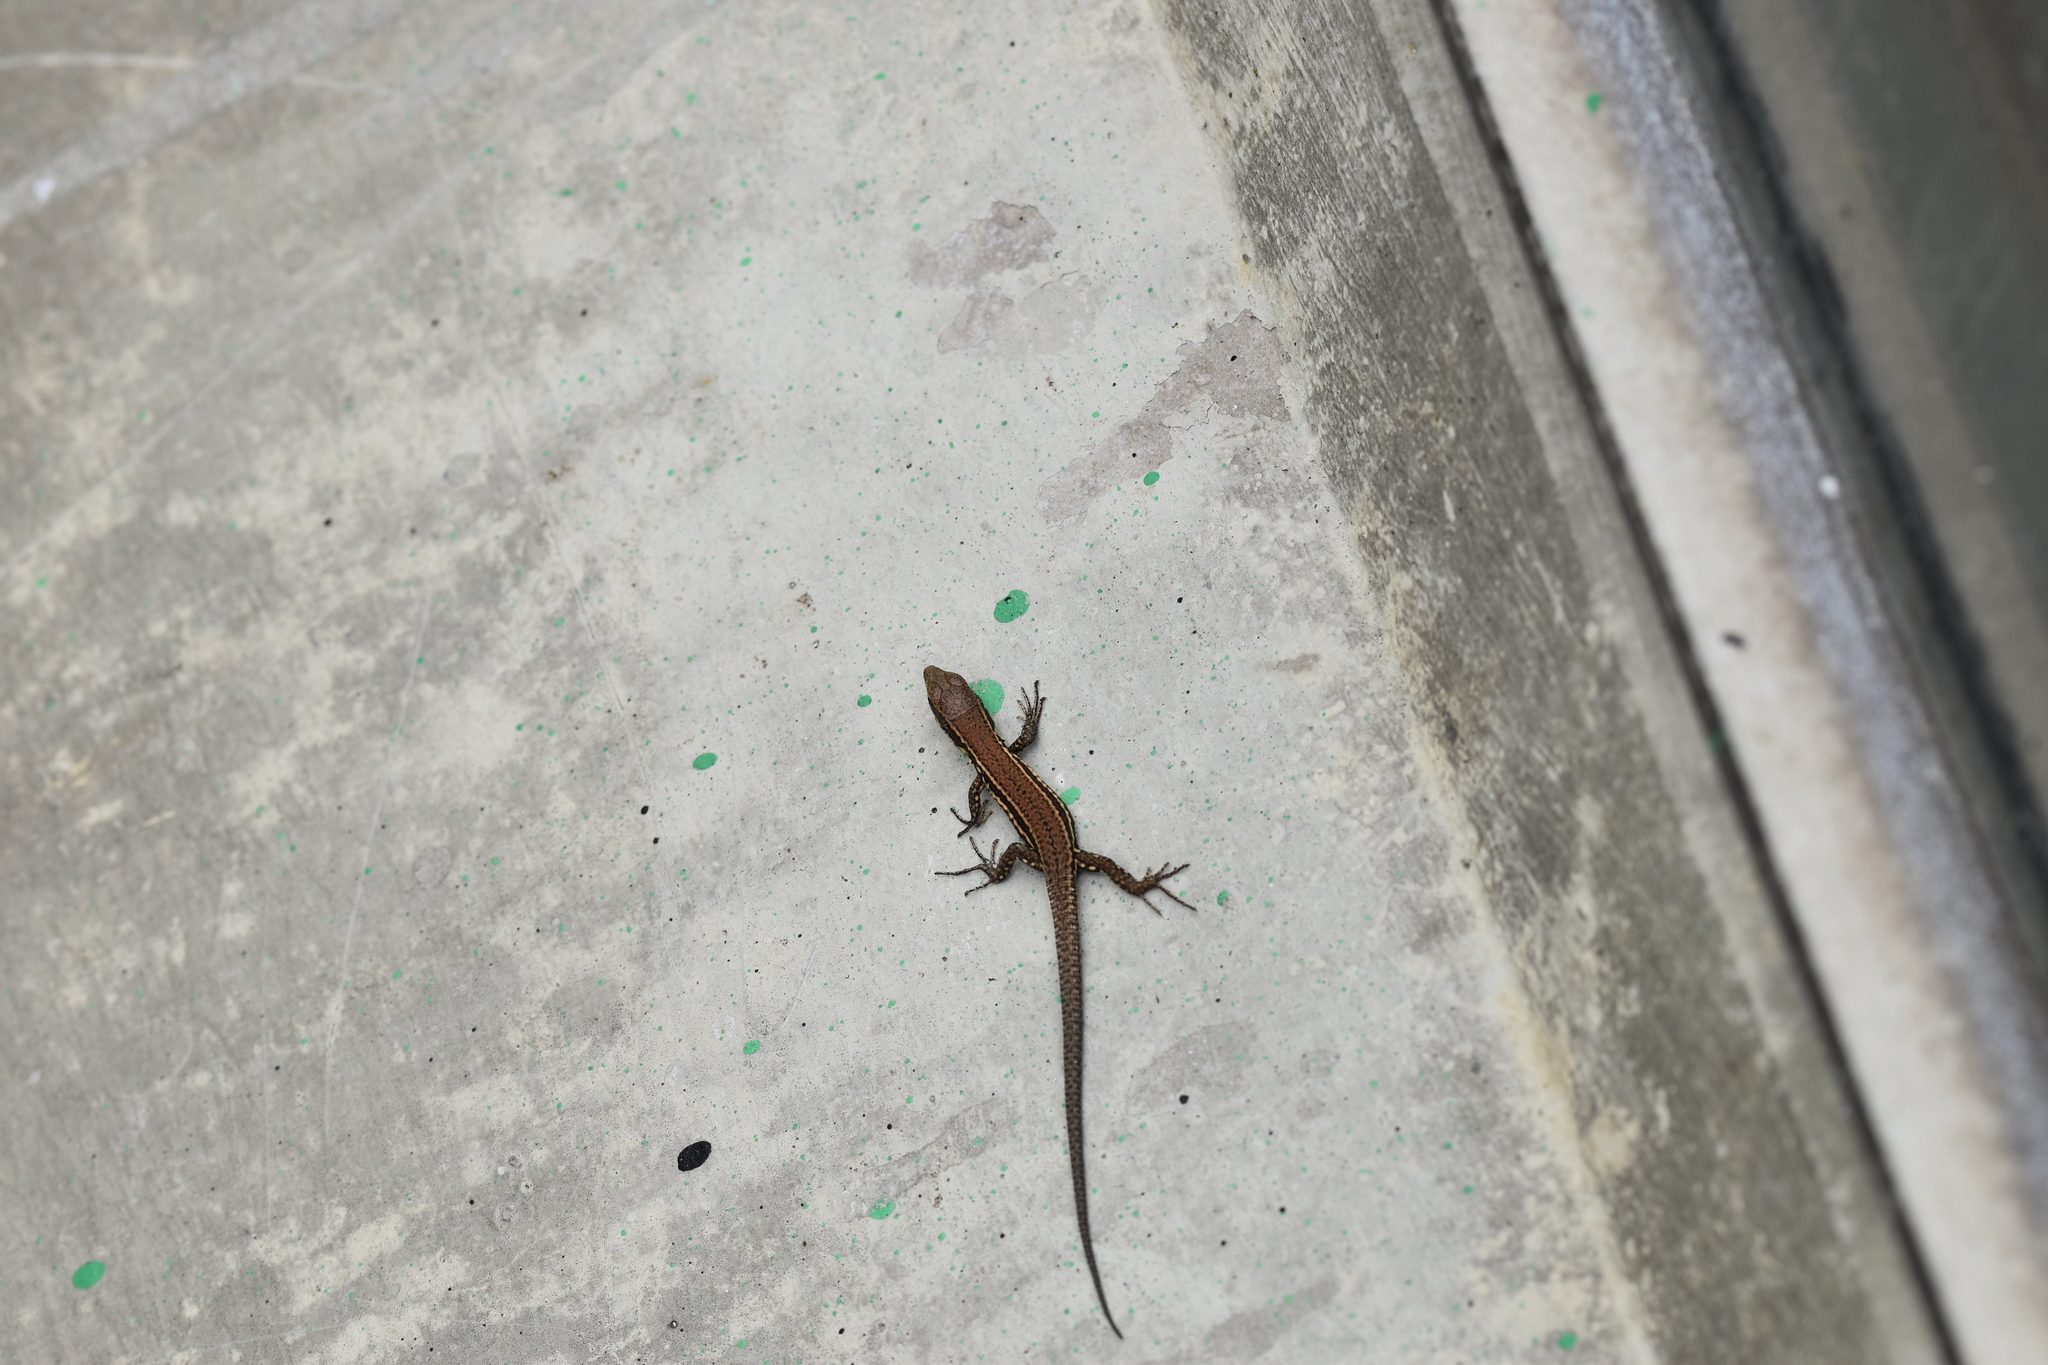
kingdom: Animalia
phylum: Chordata
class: Squamata
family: Lacertidae
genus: Podarcis
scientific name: Podarcis muralis
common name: Common wall lizard
